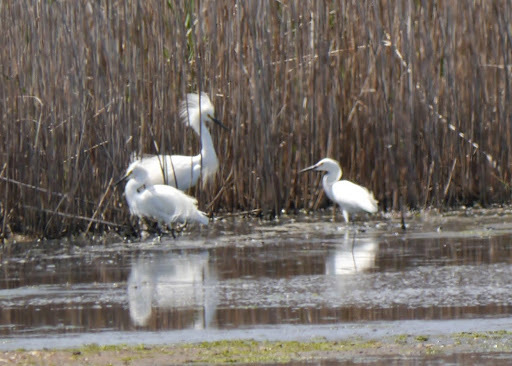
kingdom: Animalia
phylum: Chordata
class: Aves
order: Pelecaniformes
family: Ardeidae
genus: Egretta
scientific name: Egretta thula
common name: Snowy egret
